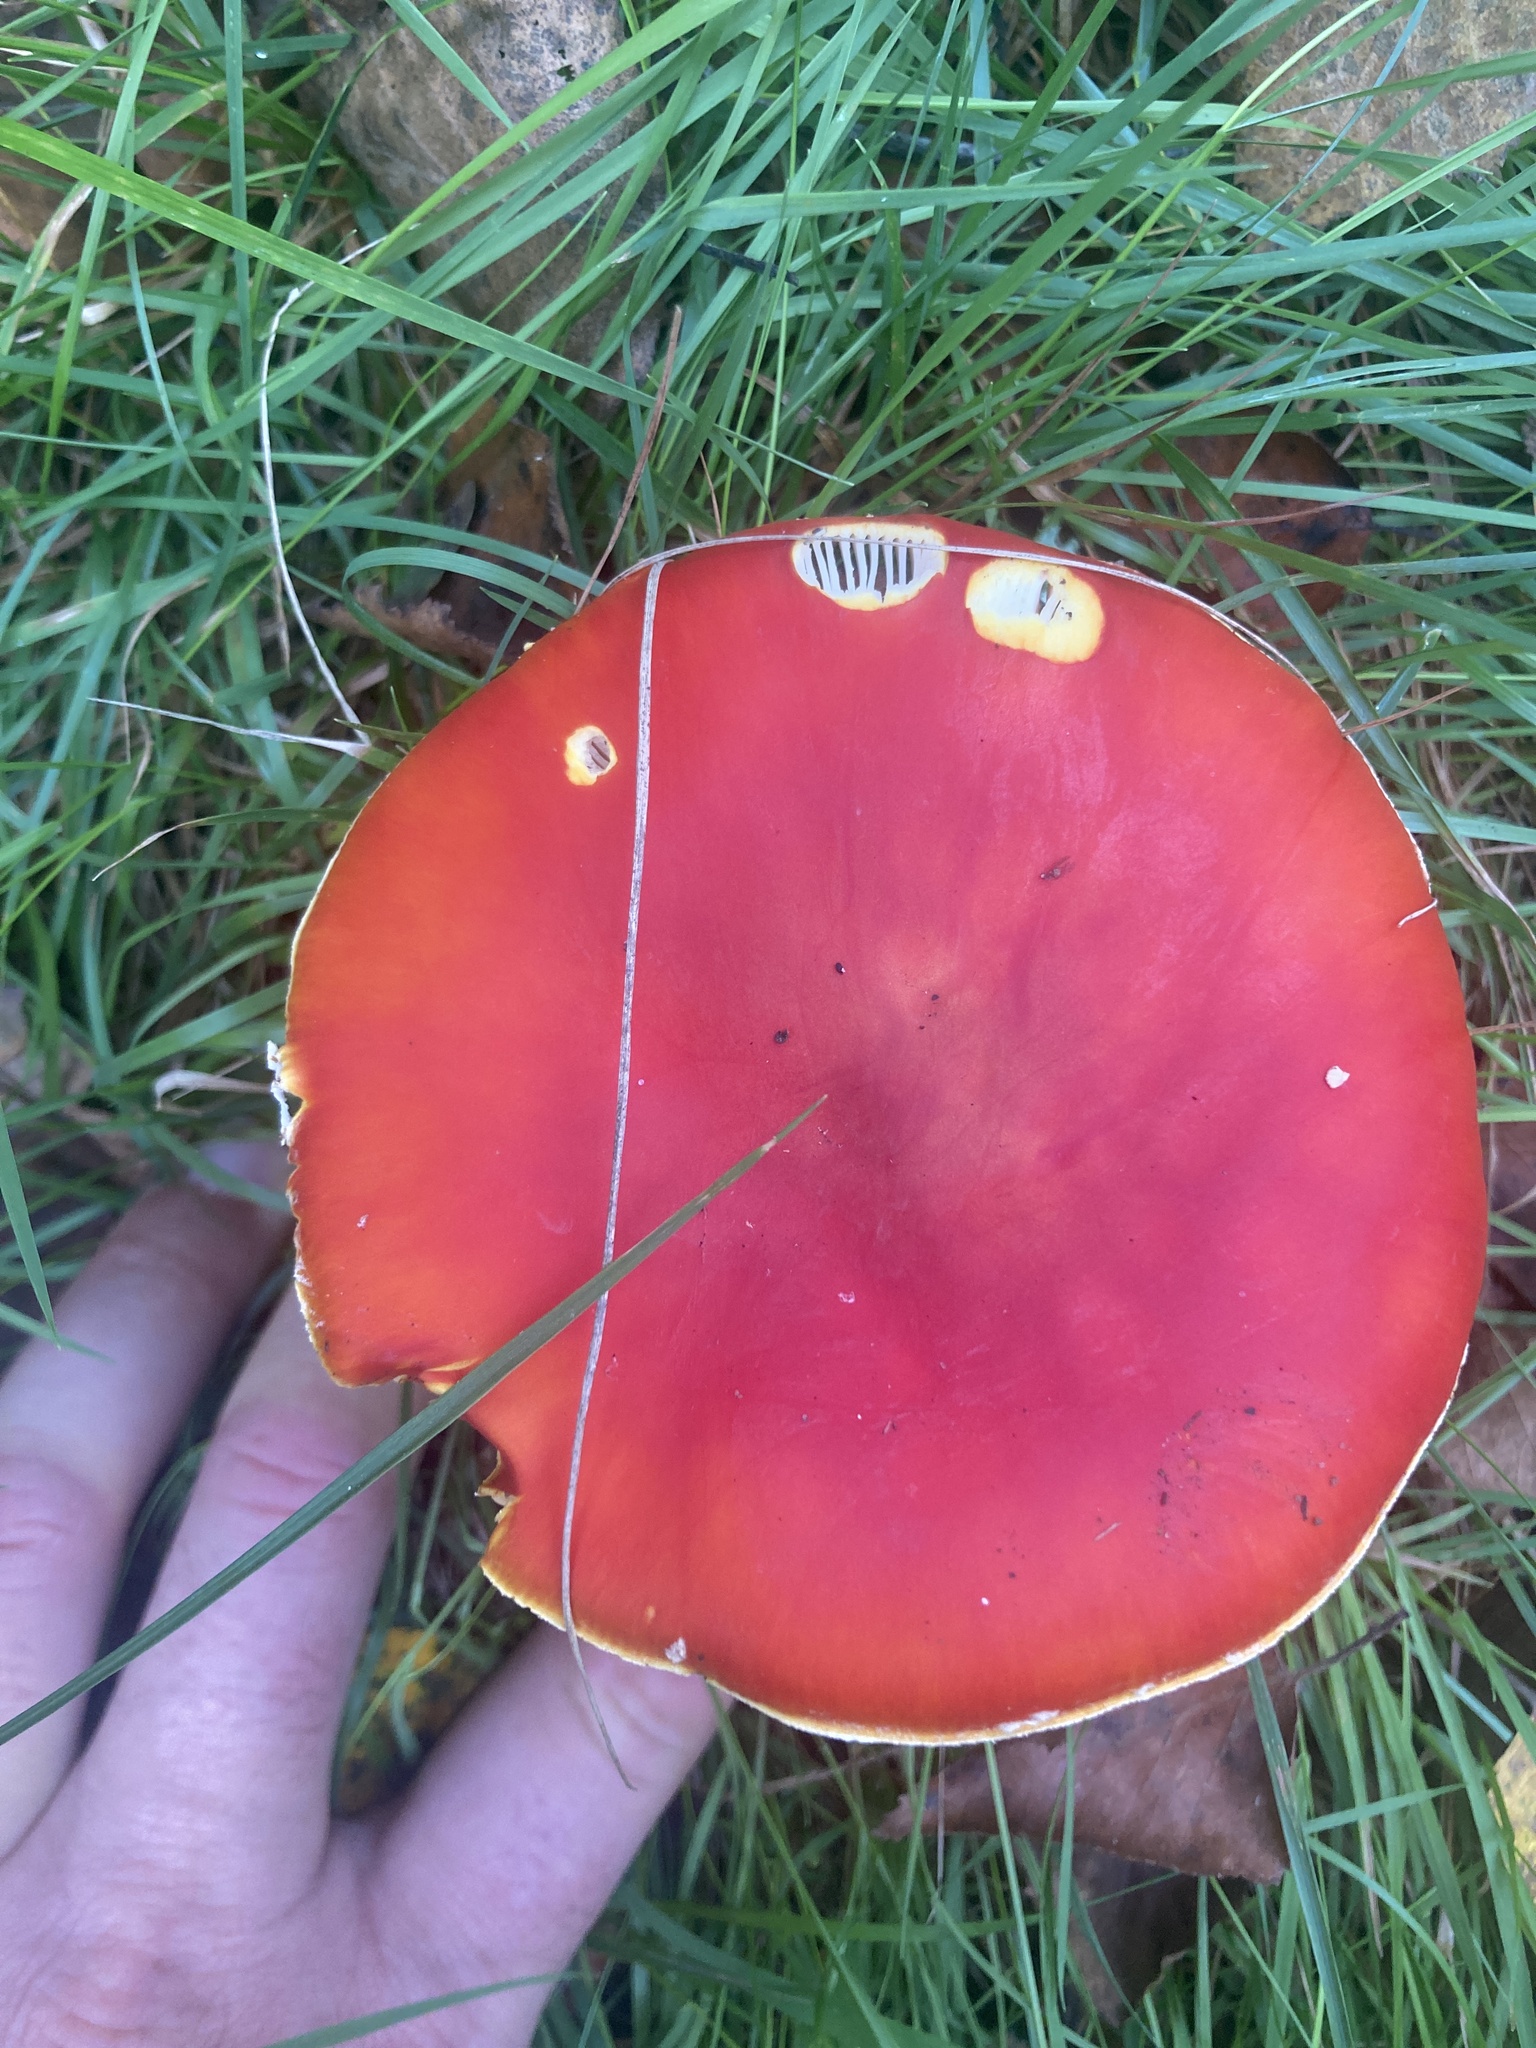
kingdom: Fungi
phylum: Basidiomycota
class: Agaricomycetes
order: Agaricales
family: Amanitaceae
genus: Amanita
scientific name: Amanita muscaria
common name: Fly agaric
